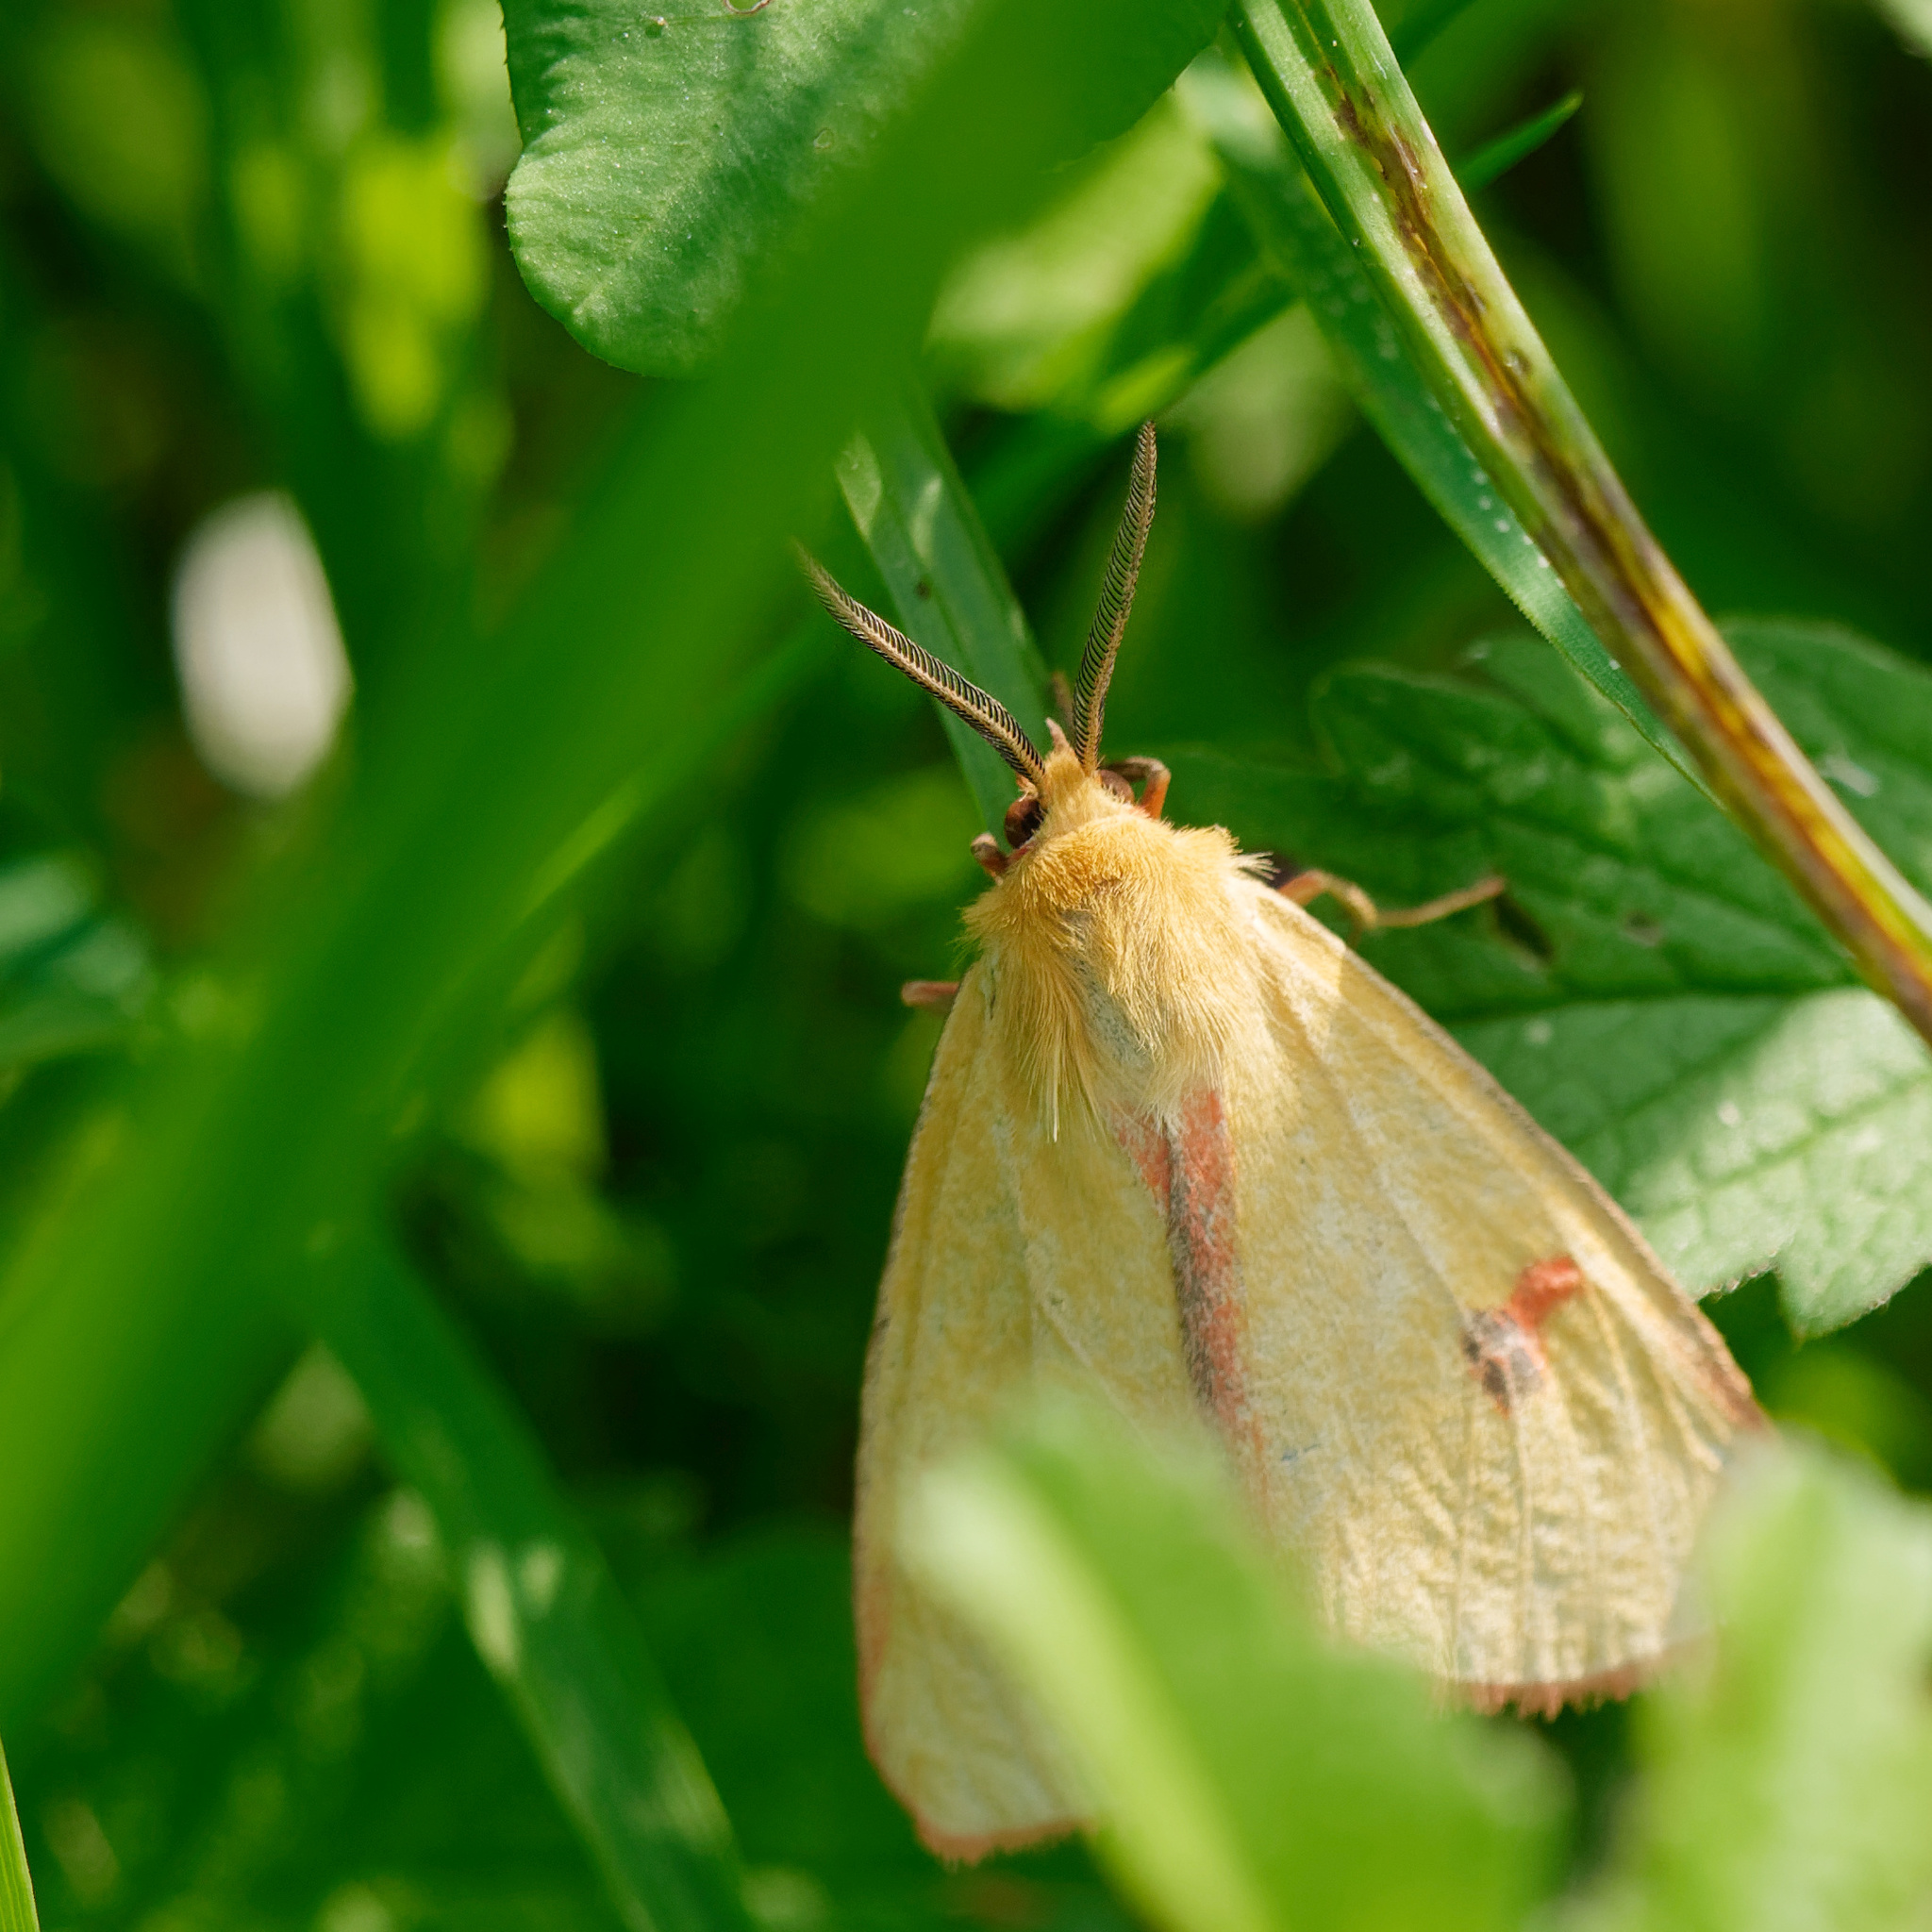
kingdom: Animalia
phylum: Arthropoda
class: Insecta
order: Lepidoptera
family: Erebidae
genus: Diacrisia
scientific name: Diacrisia sannio
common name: Clouded buff
